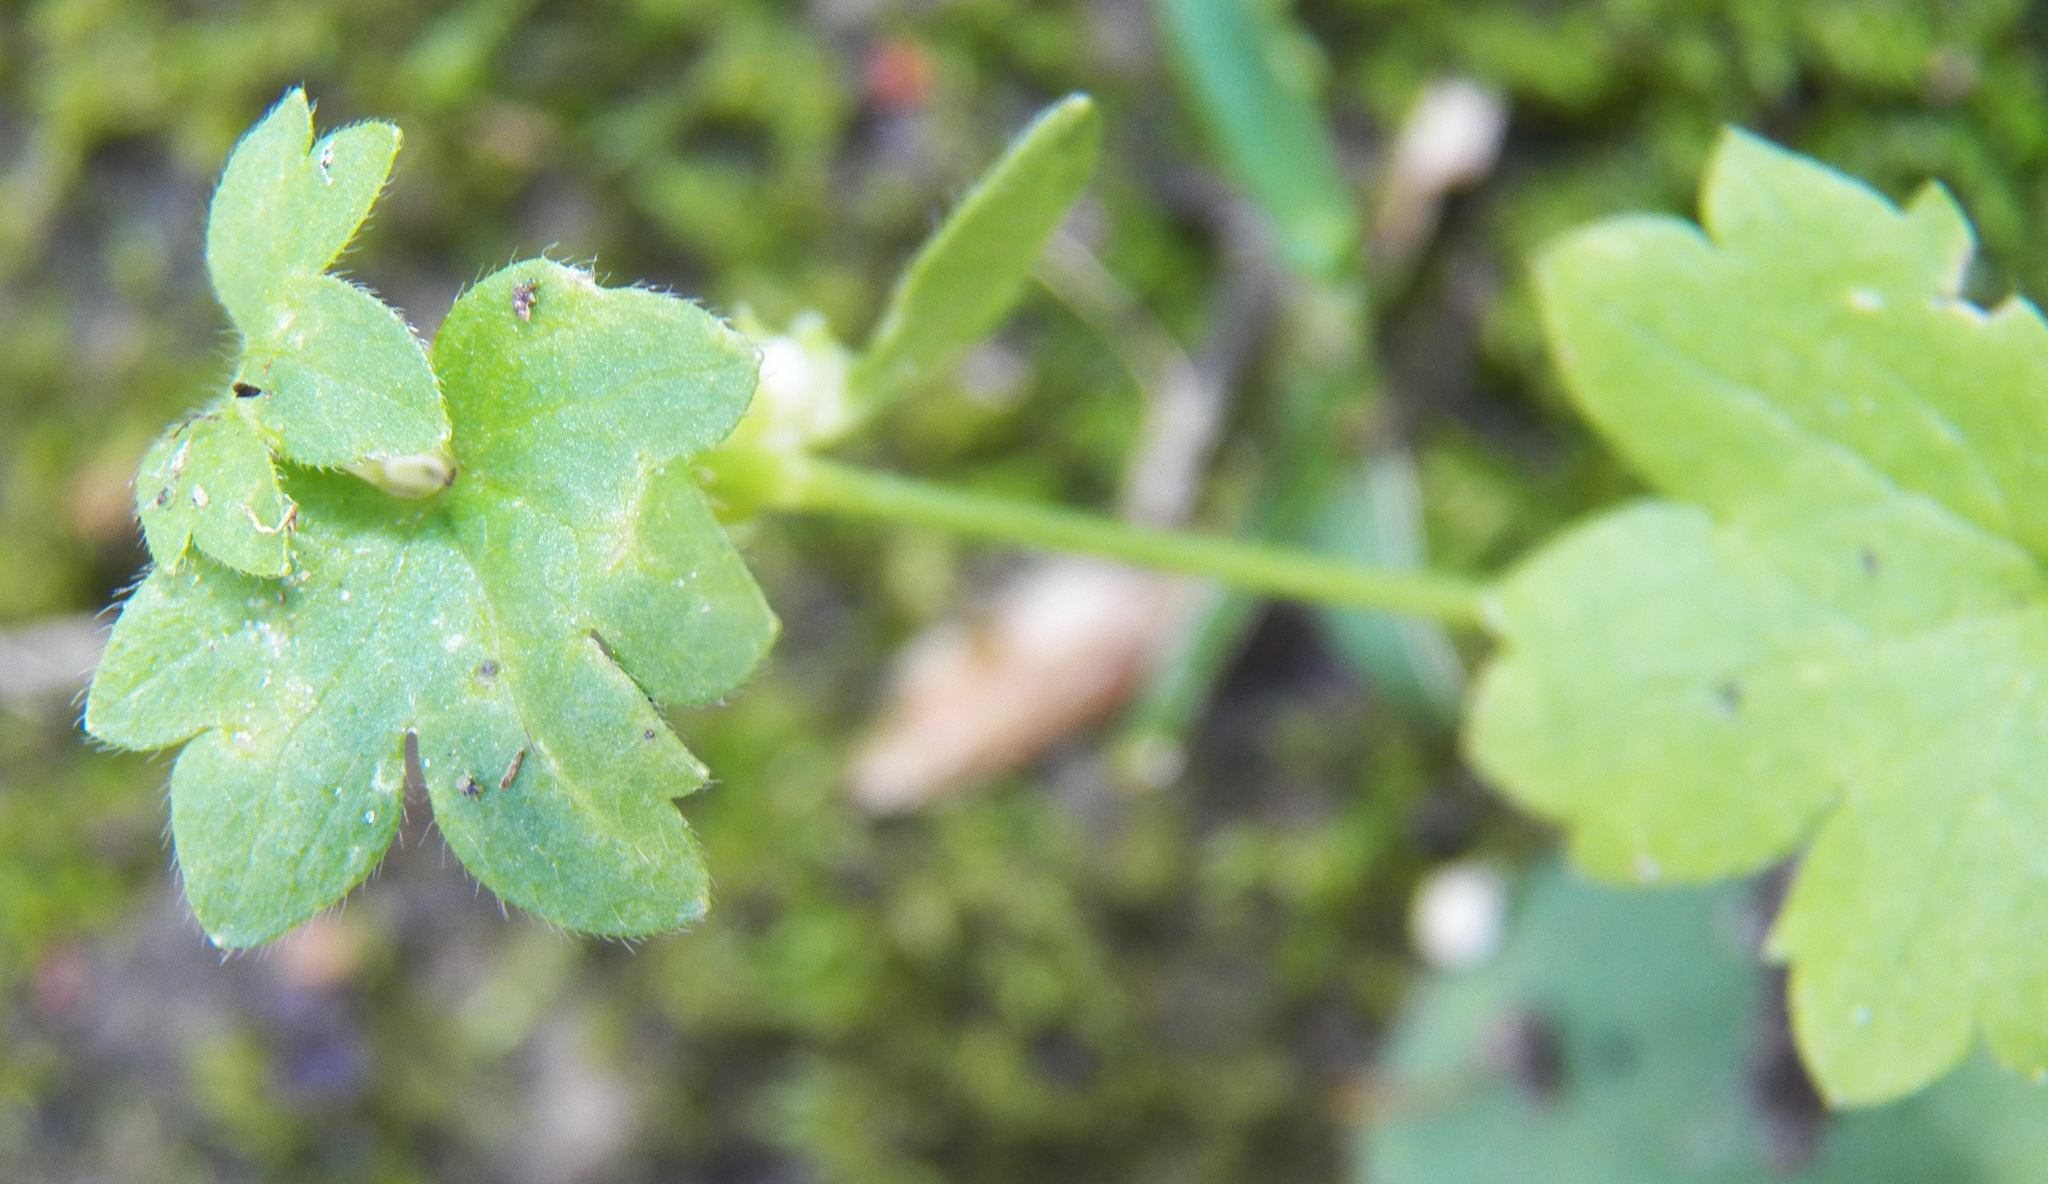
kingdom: Plantae
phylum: Tracheophyta
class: Magnoliopsida
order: Apiales
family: Apiaceae
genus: Bowlesia
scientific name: Bowlesia incana
